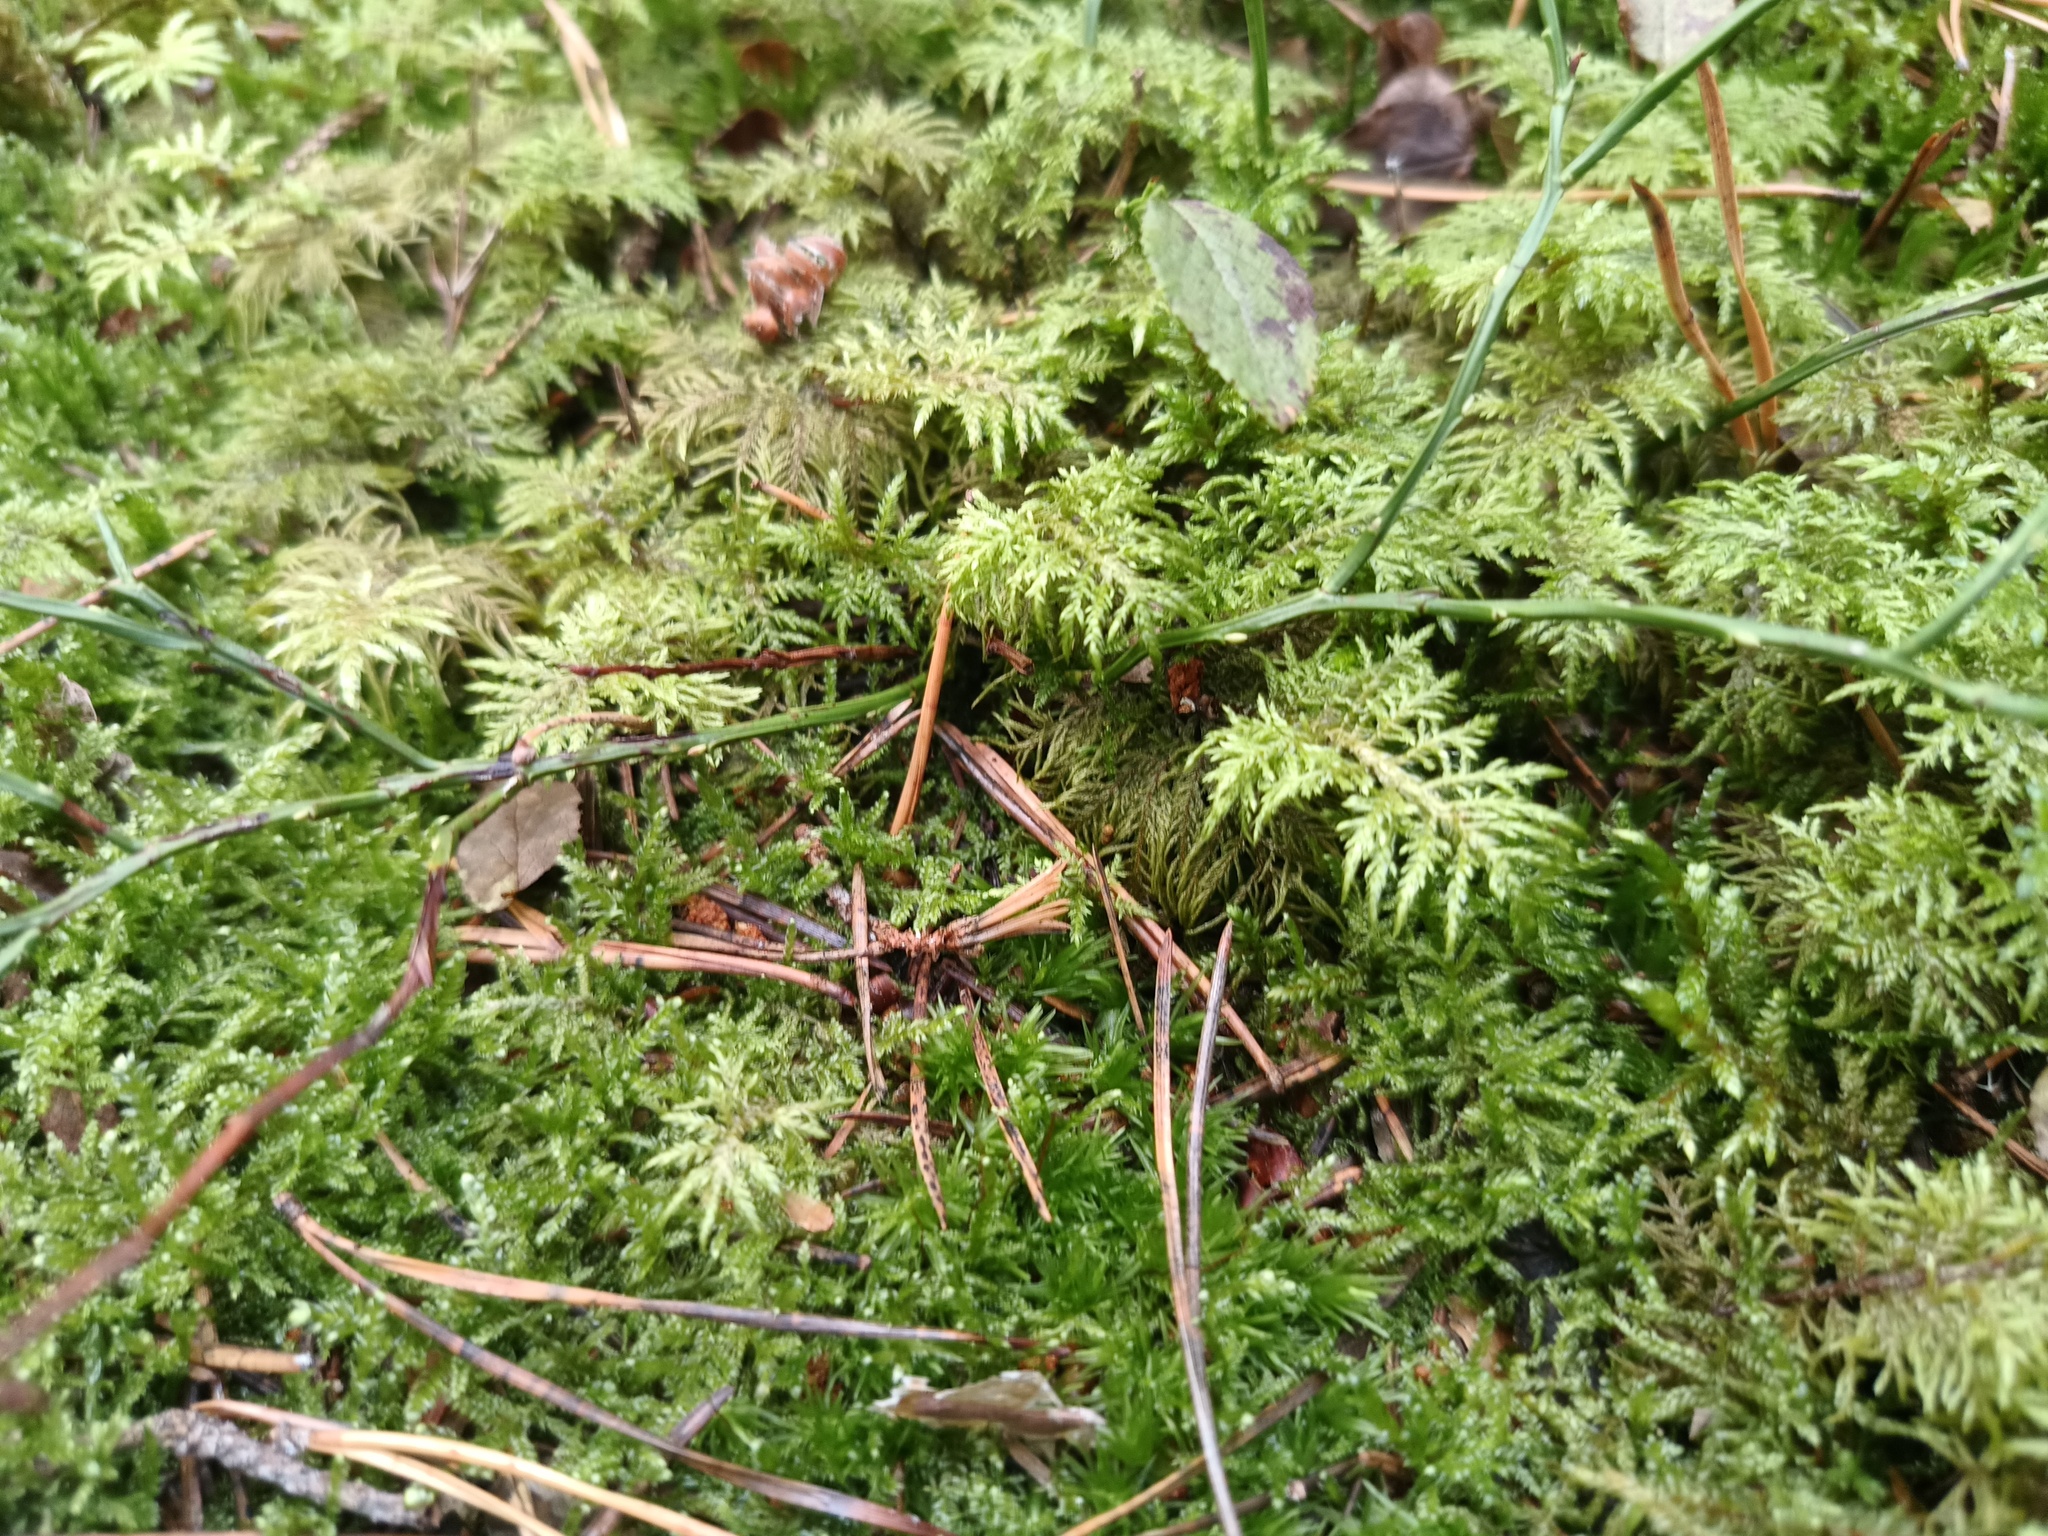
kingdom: Plantae
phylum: Bryophyta
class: Bryopsida
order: Hypnales
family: Hylocomiaceae
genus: Hylocomium
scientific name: Hylocomium splendens
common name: Stairstep moss
